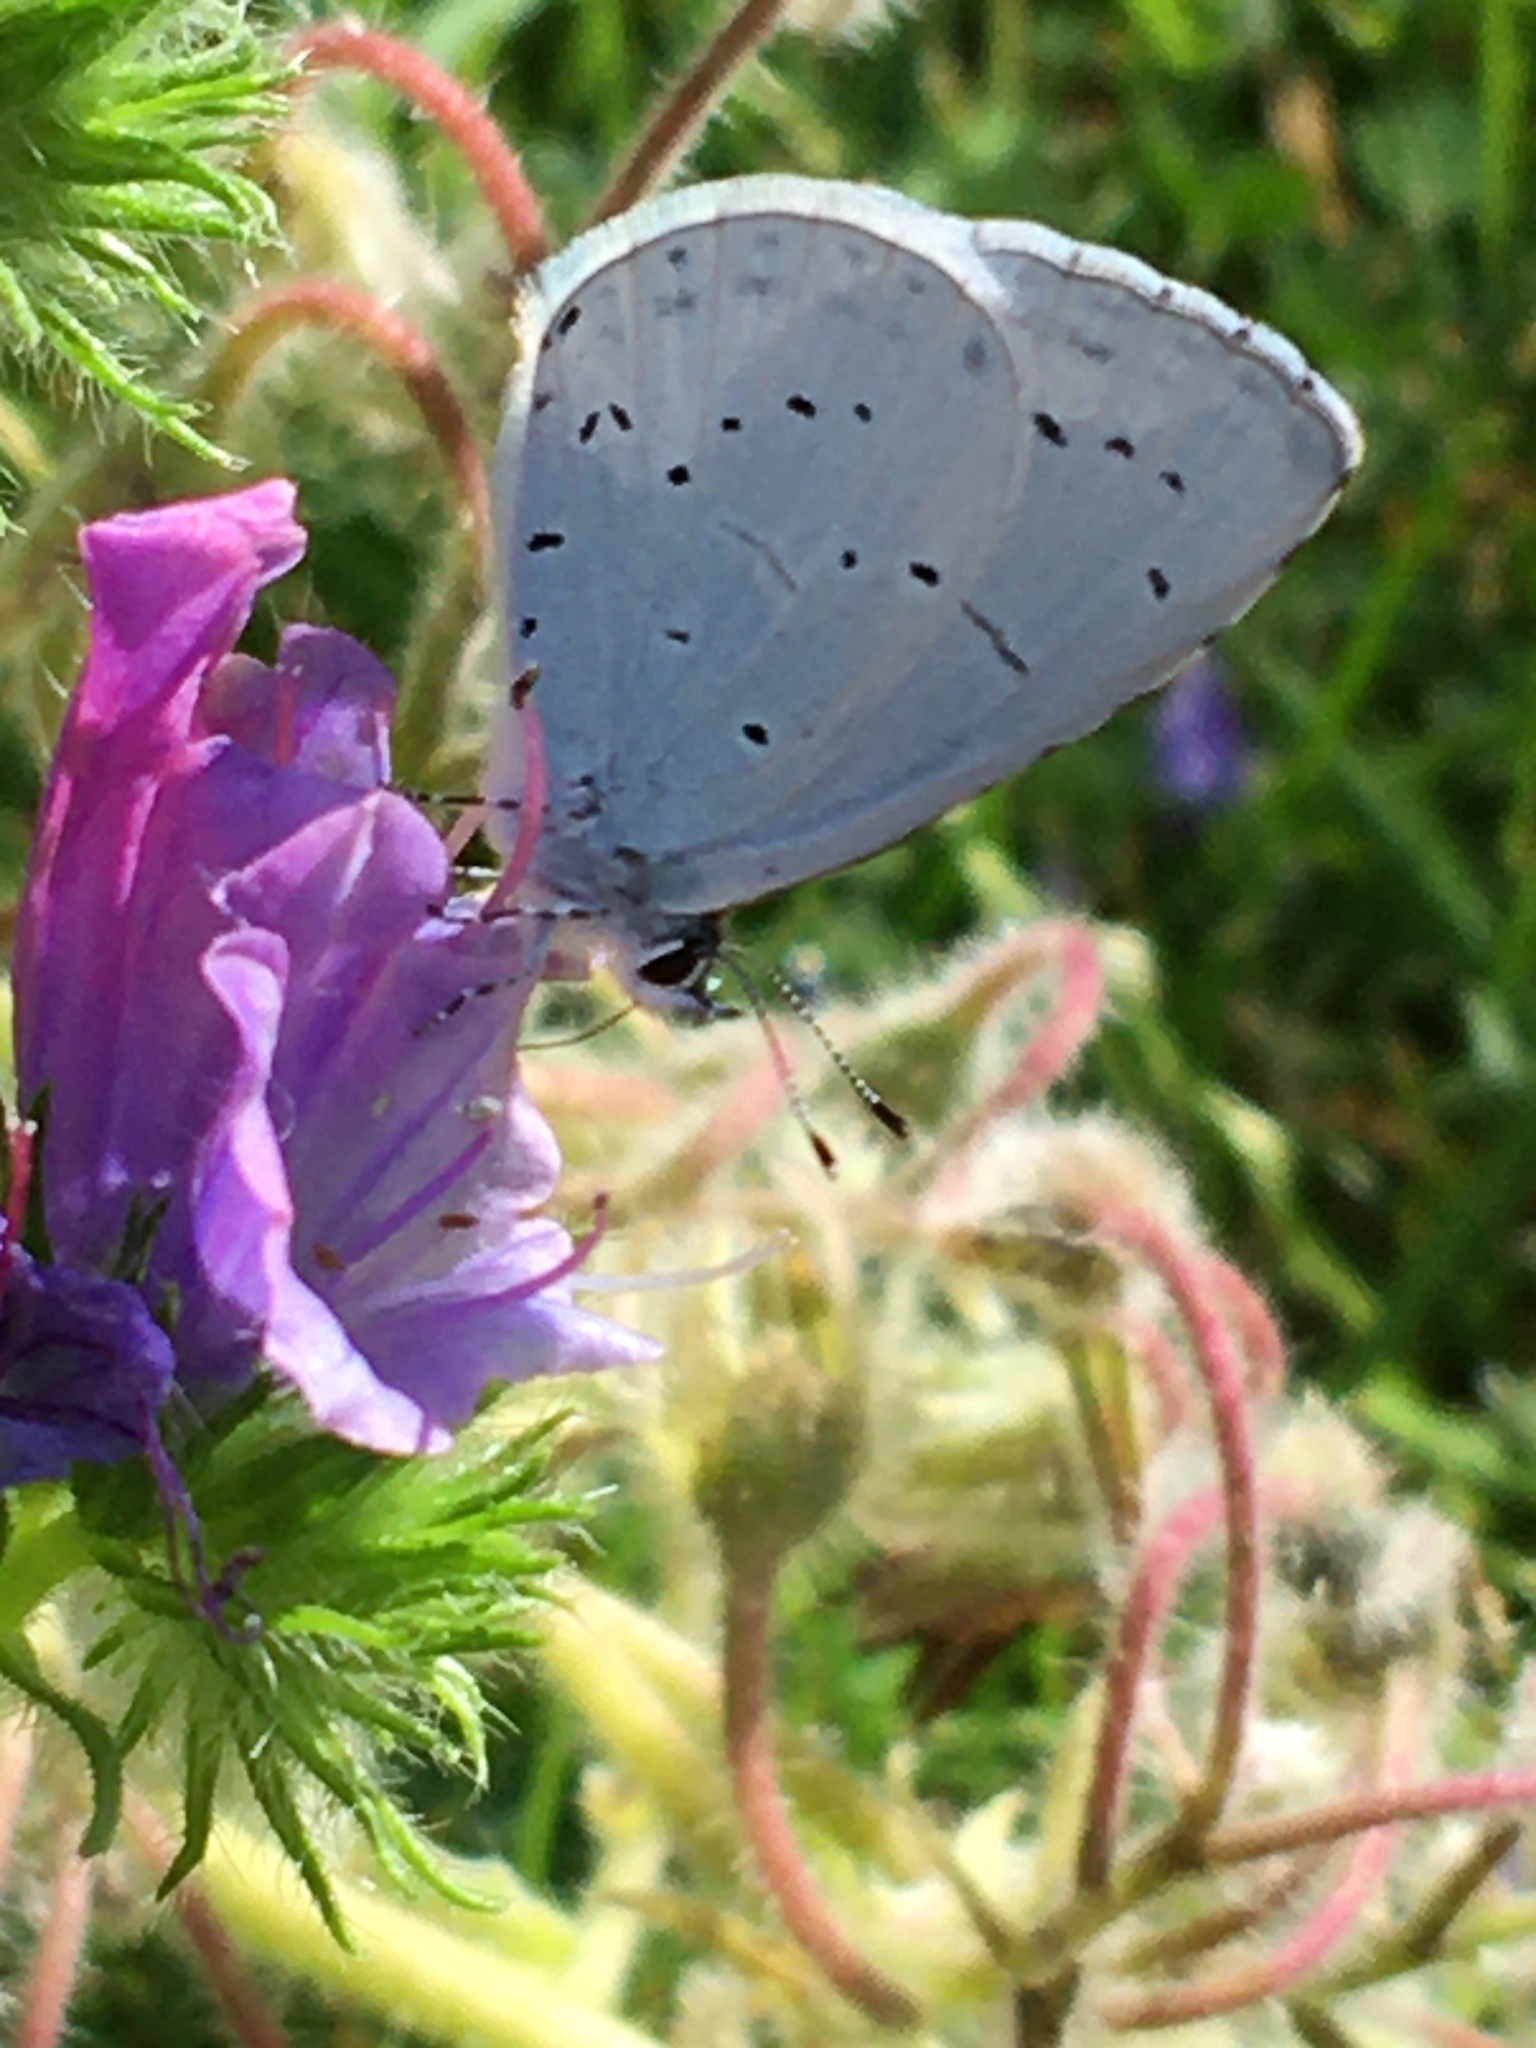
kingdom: Animalia
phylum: Arthropoda
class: Insecta
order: Lepidoptera
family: Lycaenidae
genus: Celastrina
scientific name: Celastrina argiolus
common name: Holly blue
